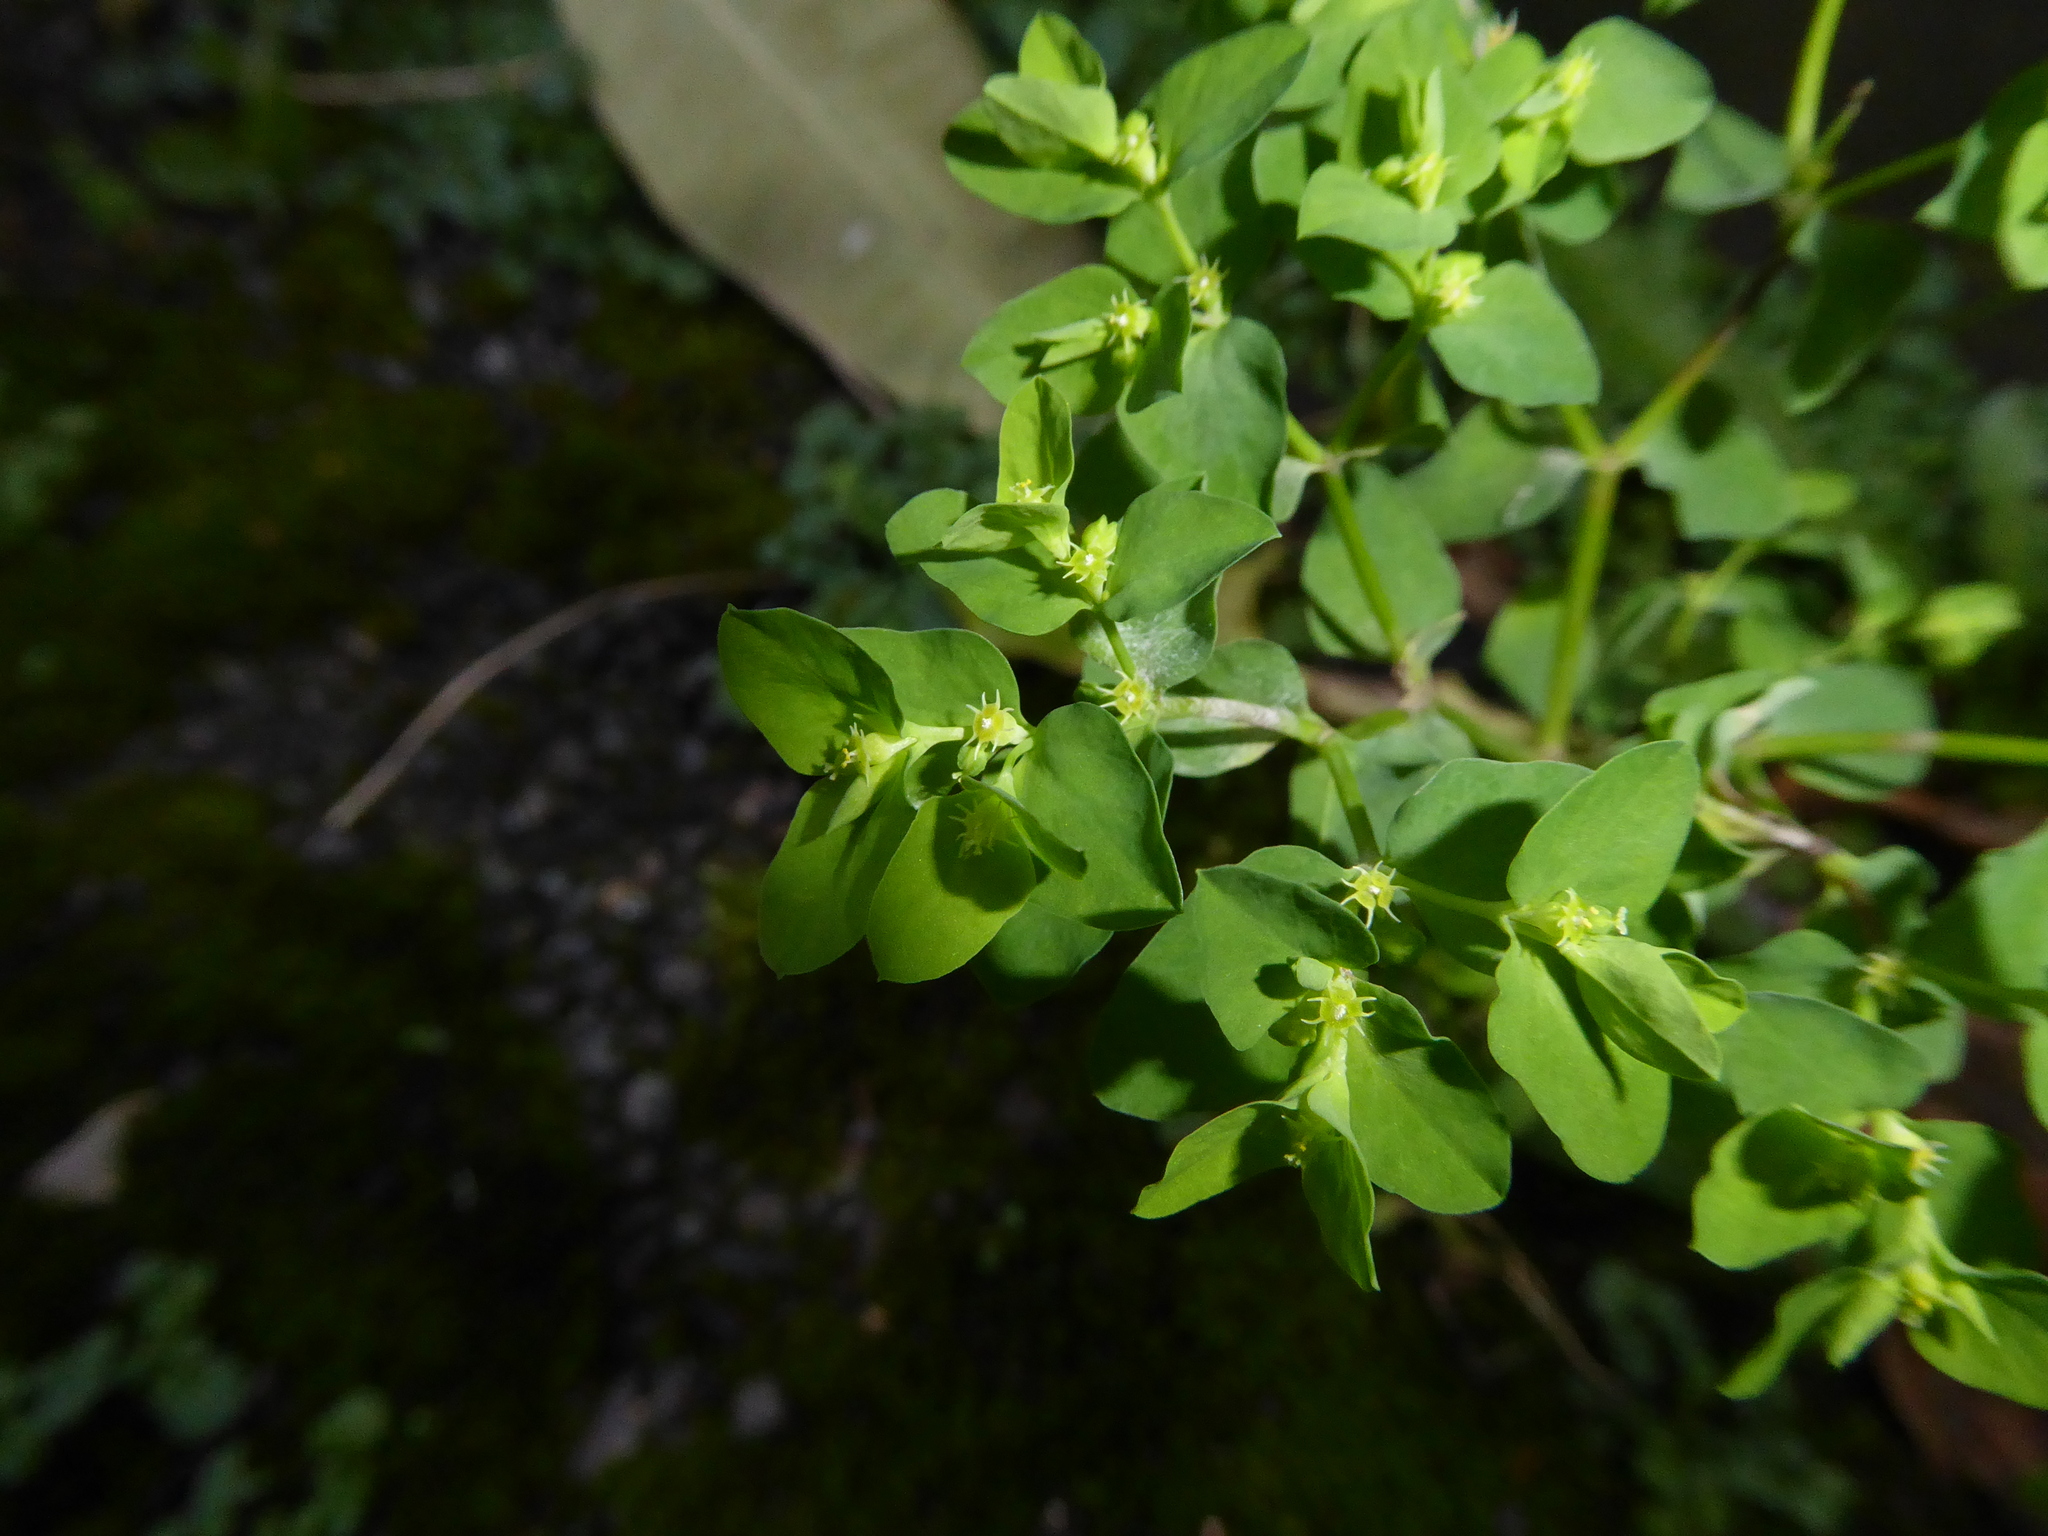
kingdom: Plantae
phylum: Tracheophyta
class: Magnoliopsida
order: Malpighiales
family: Euphorbiaceae
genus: Euphorbia
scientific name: Euphorbia peplus
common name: Petty spurge
